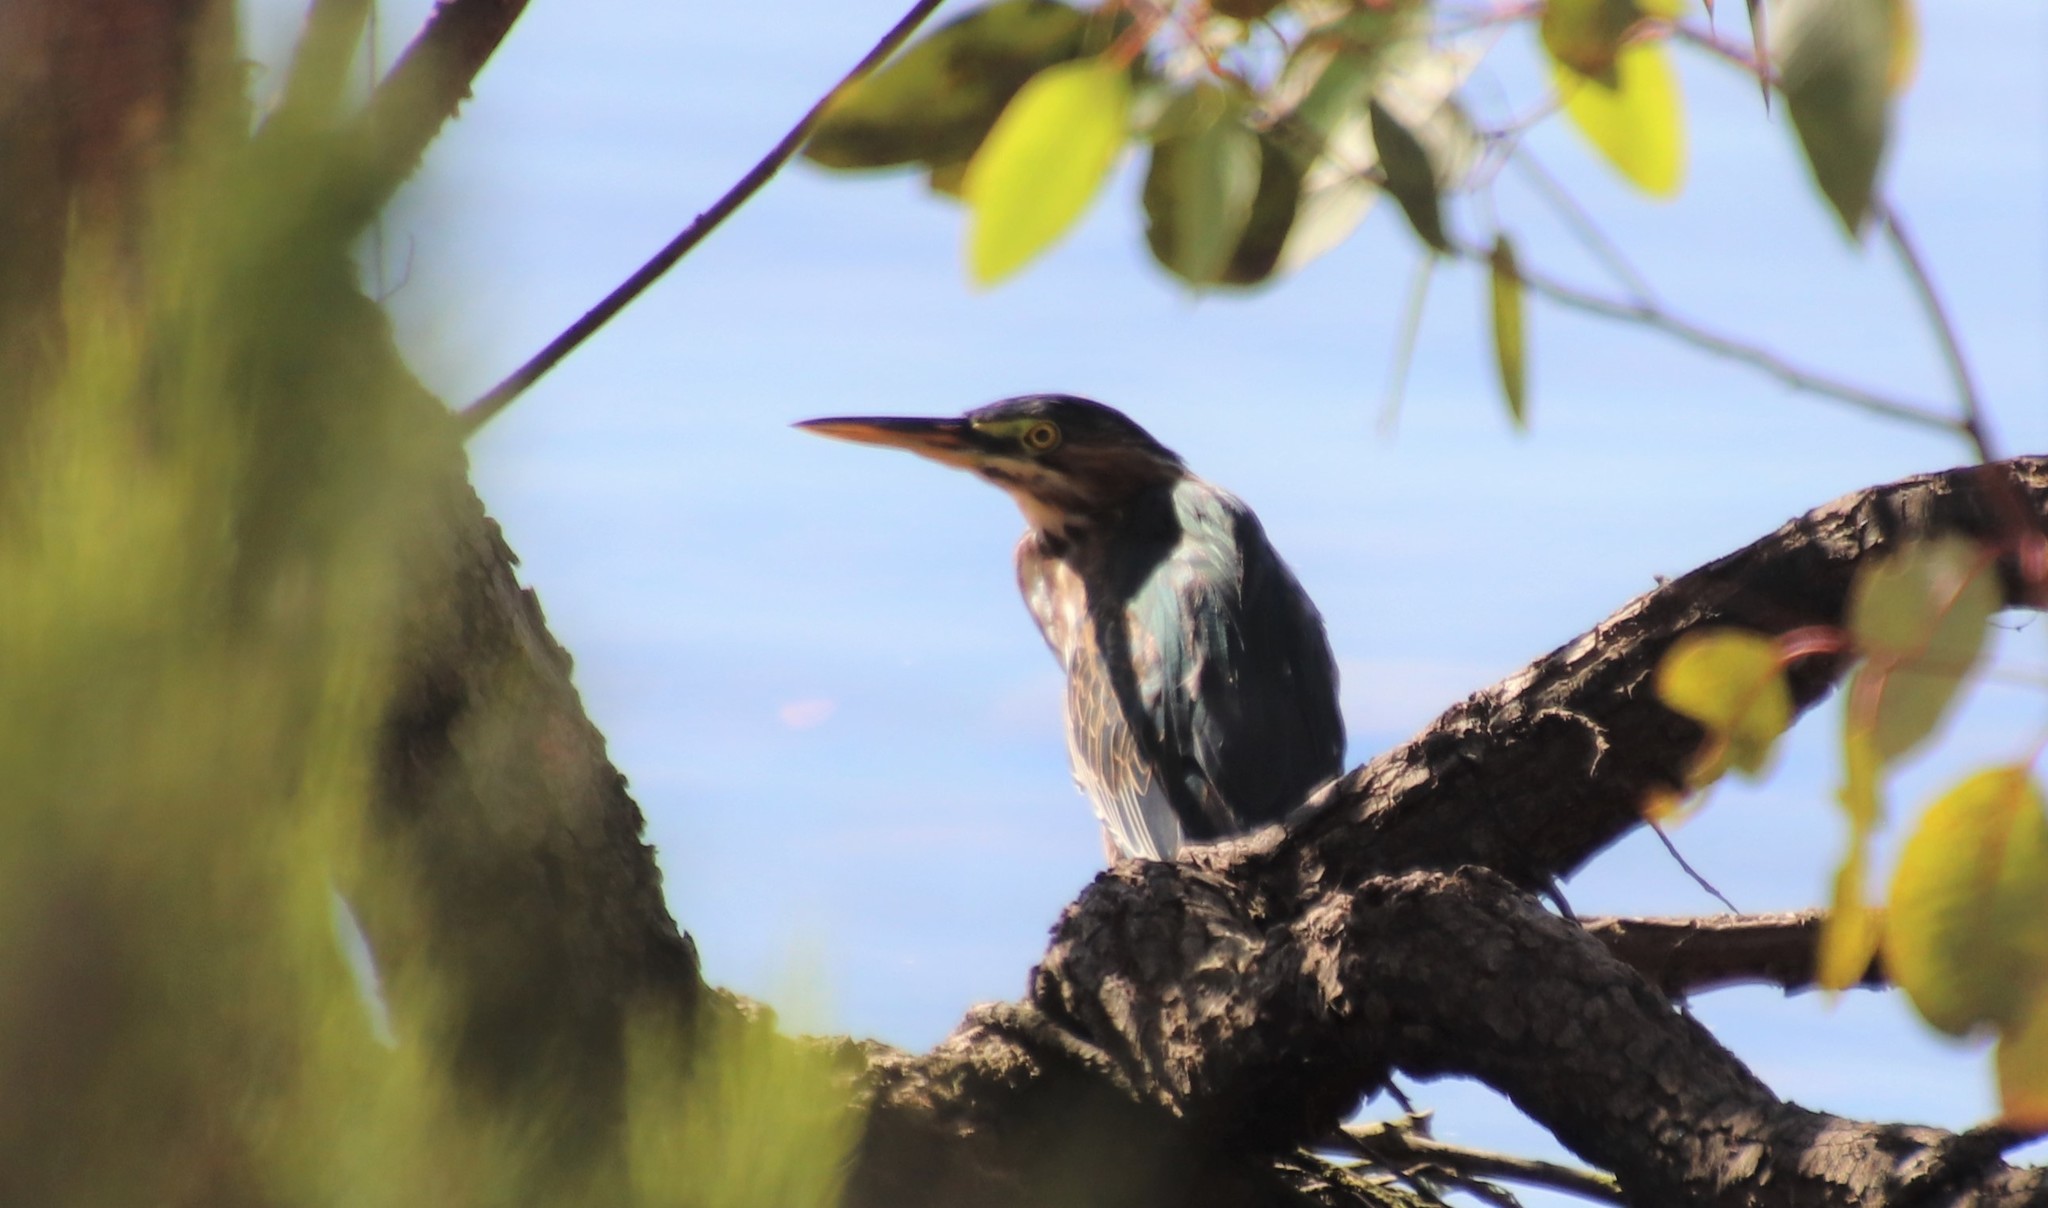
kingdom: Animalia
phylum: Chordata
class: Aves
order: Pelecaniformes
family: Ardeidae
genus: Butorides
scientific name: Butorides virescens
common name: Green heron
